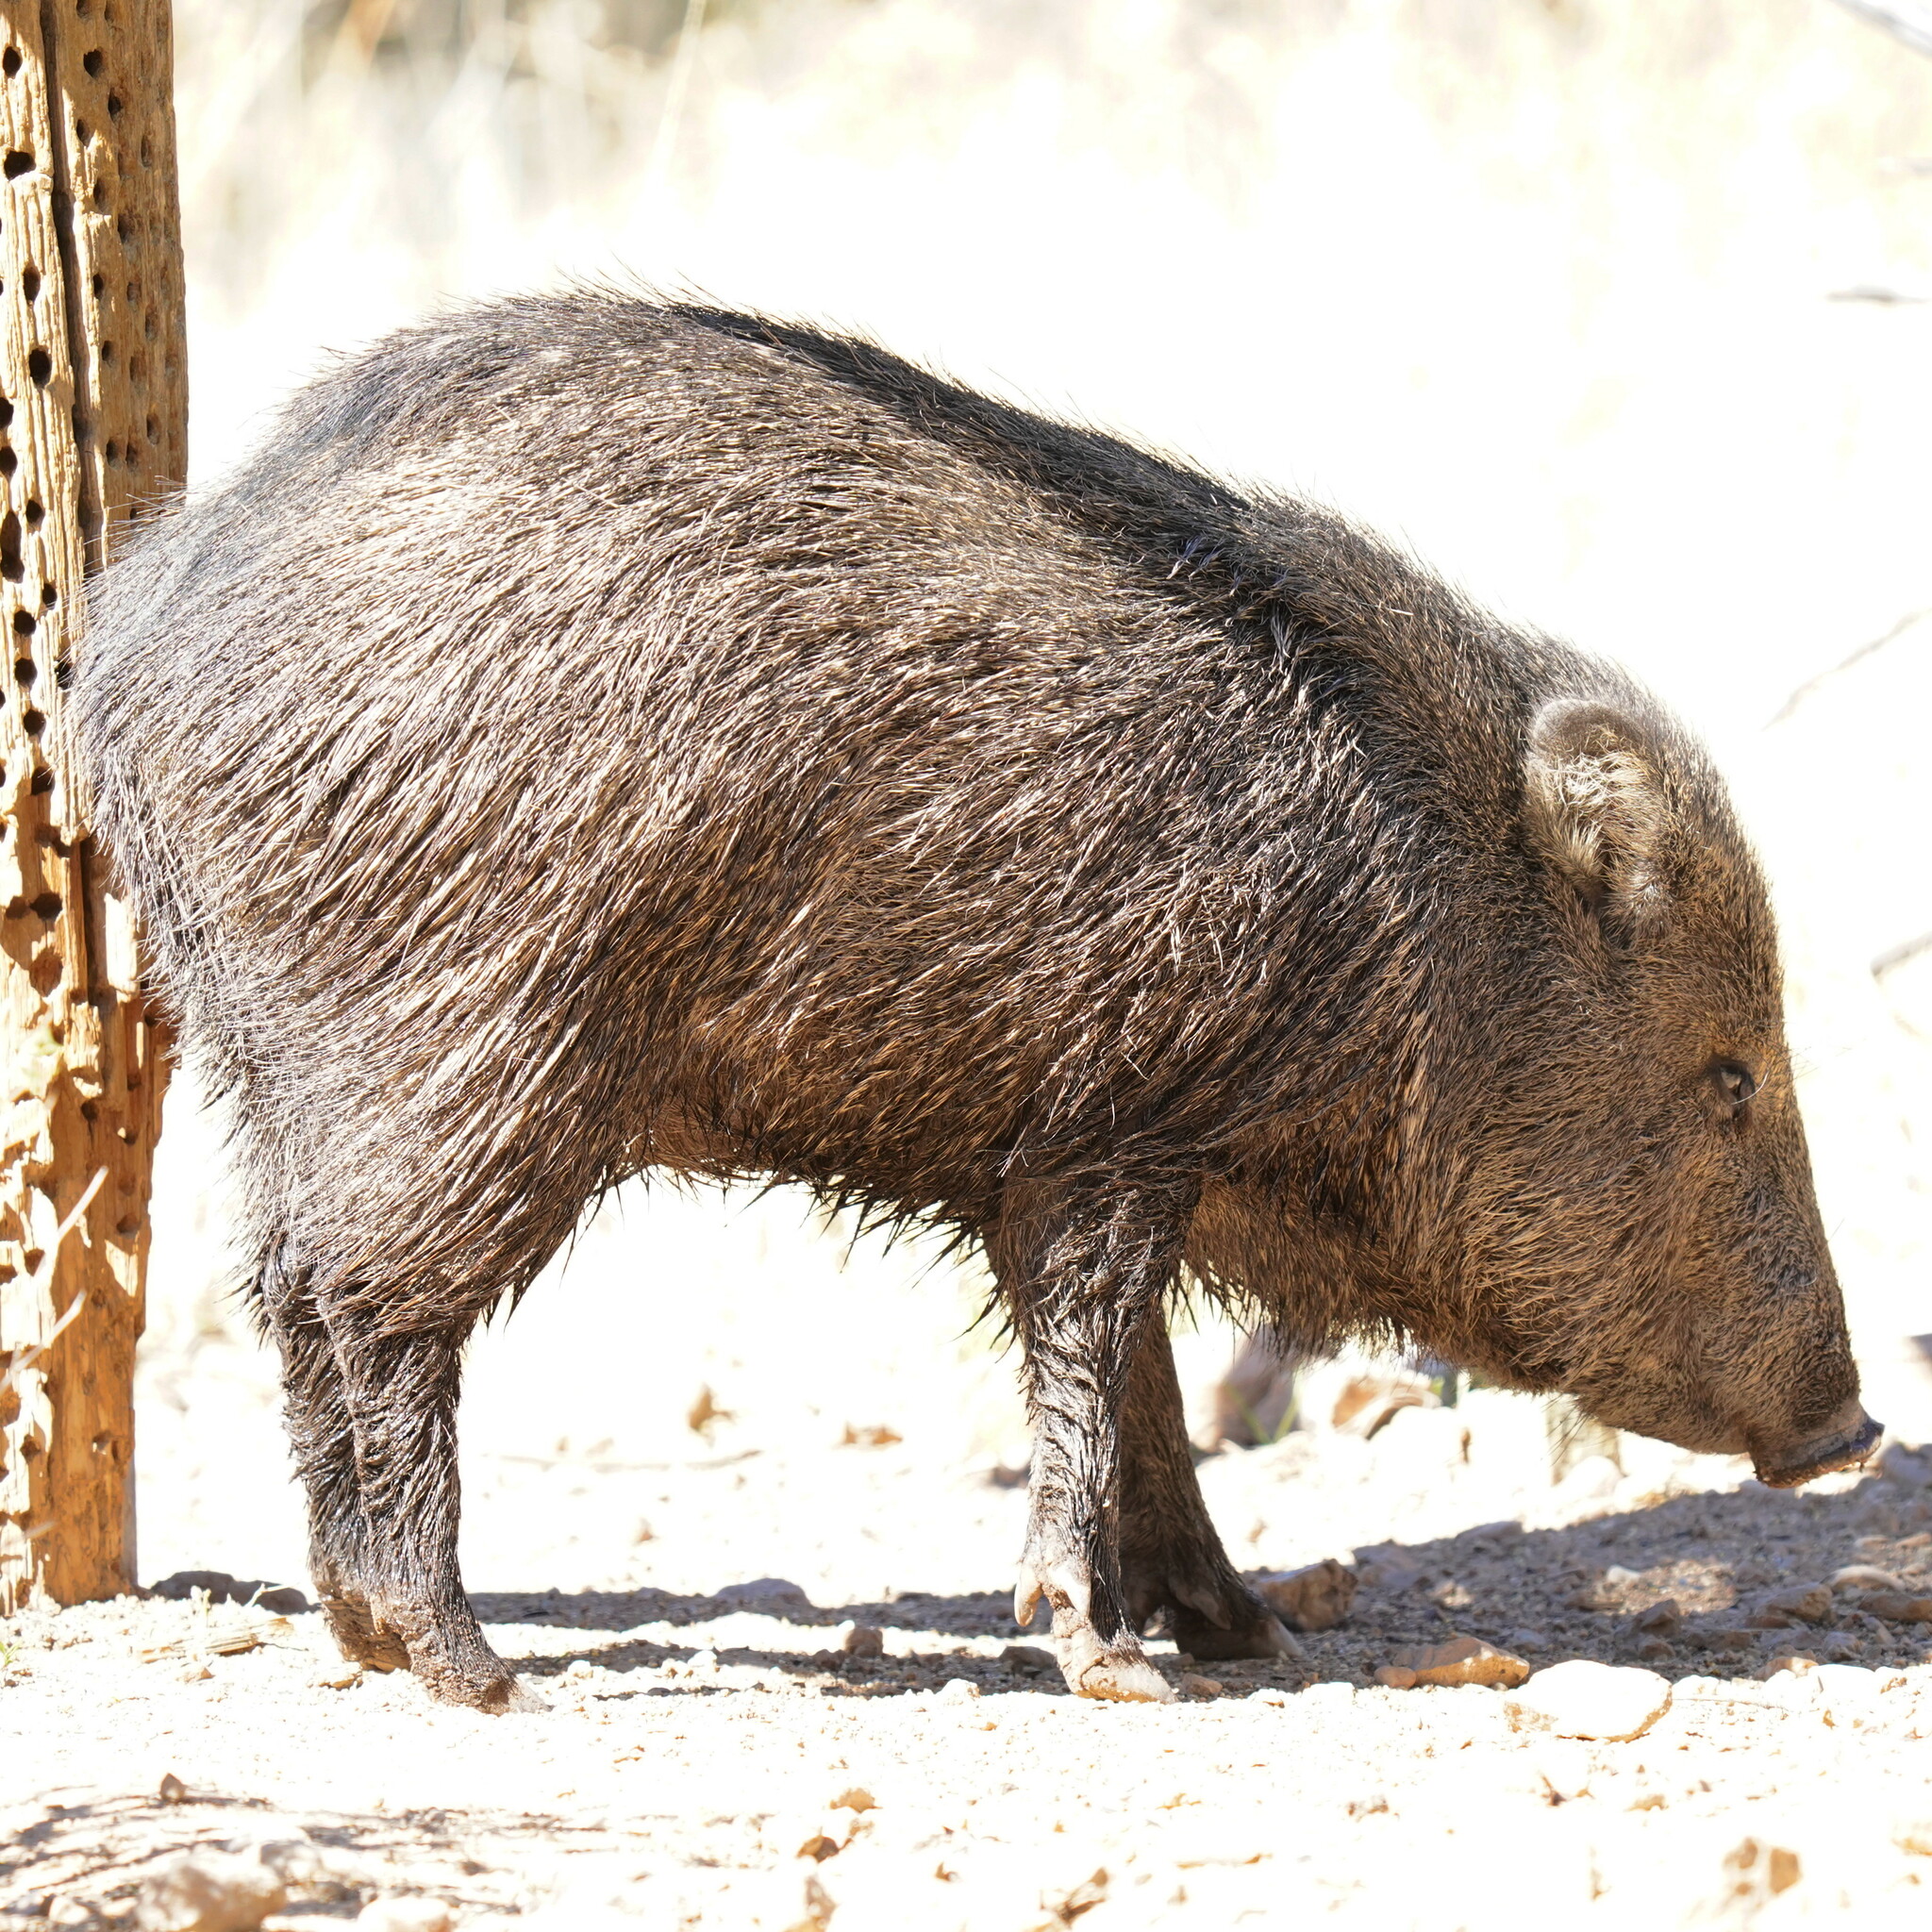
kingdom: Animalia
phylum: Chordata
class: Mammalia
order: Artiodactyla
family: Tayassuidae
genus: Pecari
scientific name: Pecari tajacu
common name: Collared peccary
